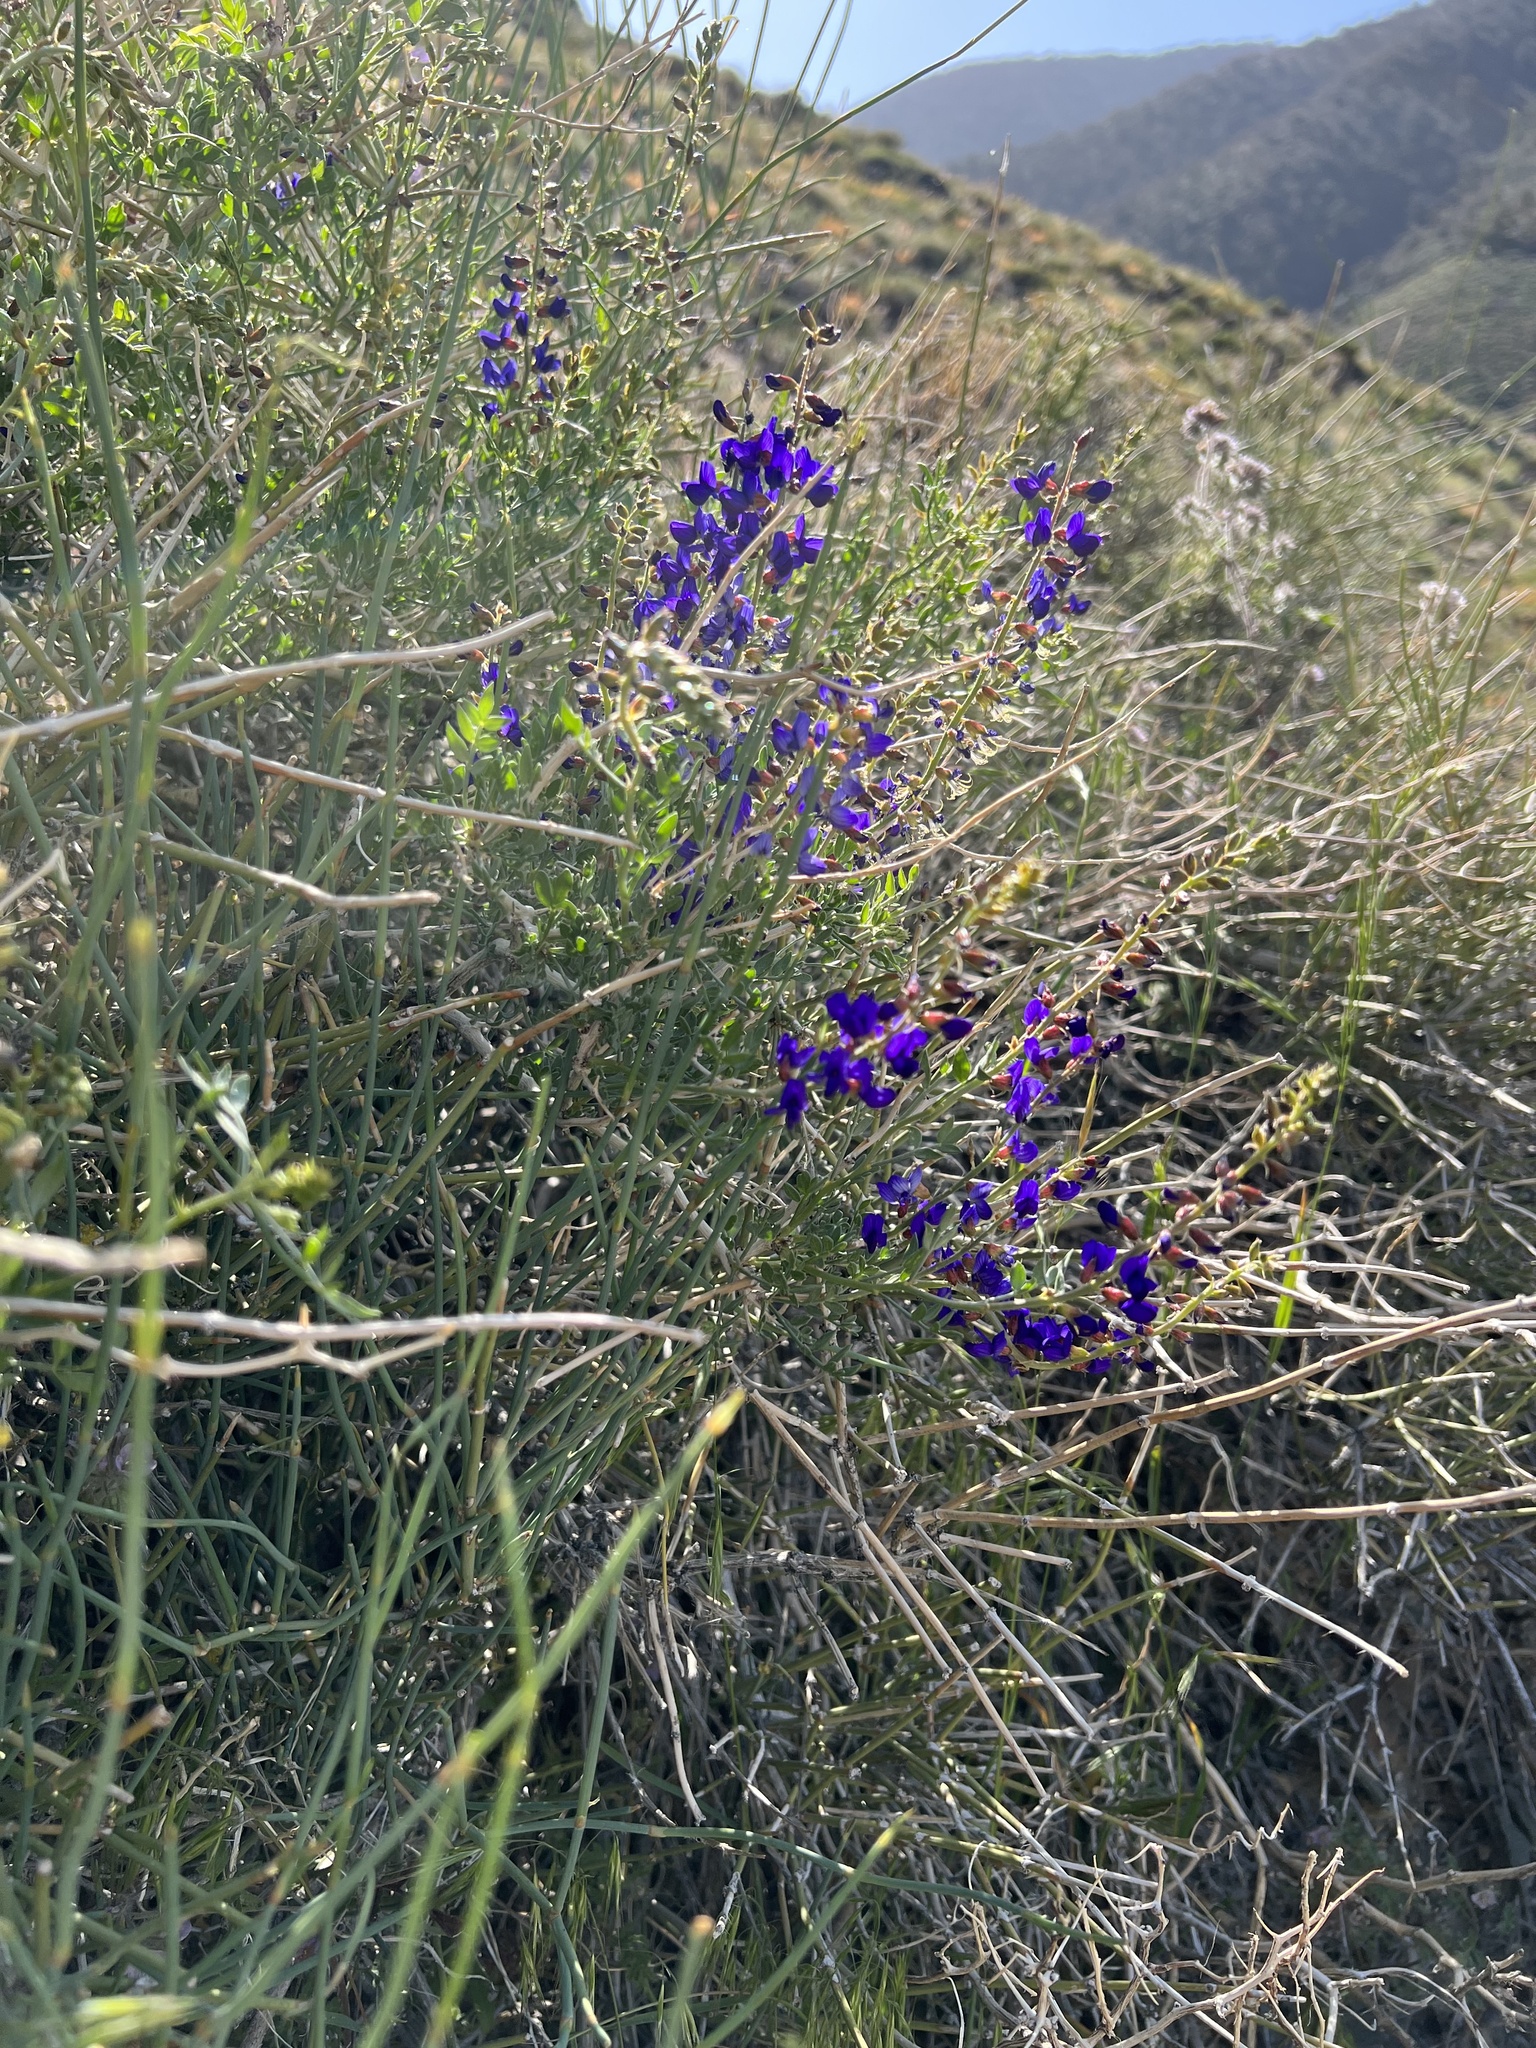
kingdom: Plantae
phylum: Tracheophyta
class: Magnoliopsida
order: Fabales
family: Fabaceae
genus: Psorothamnus
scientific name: Psorothamnus arborescens
